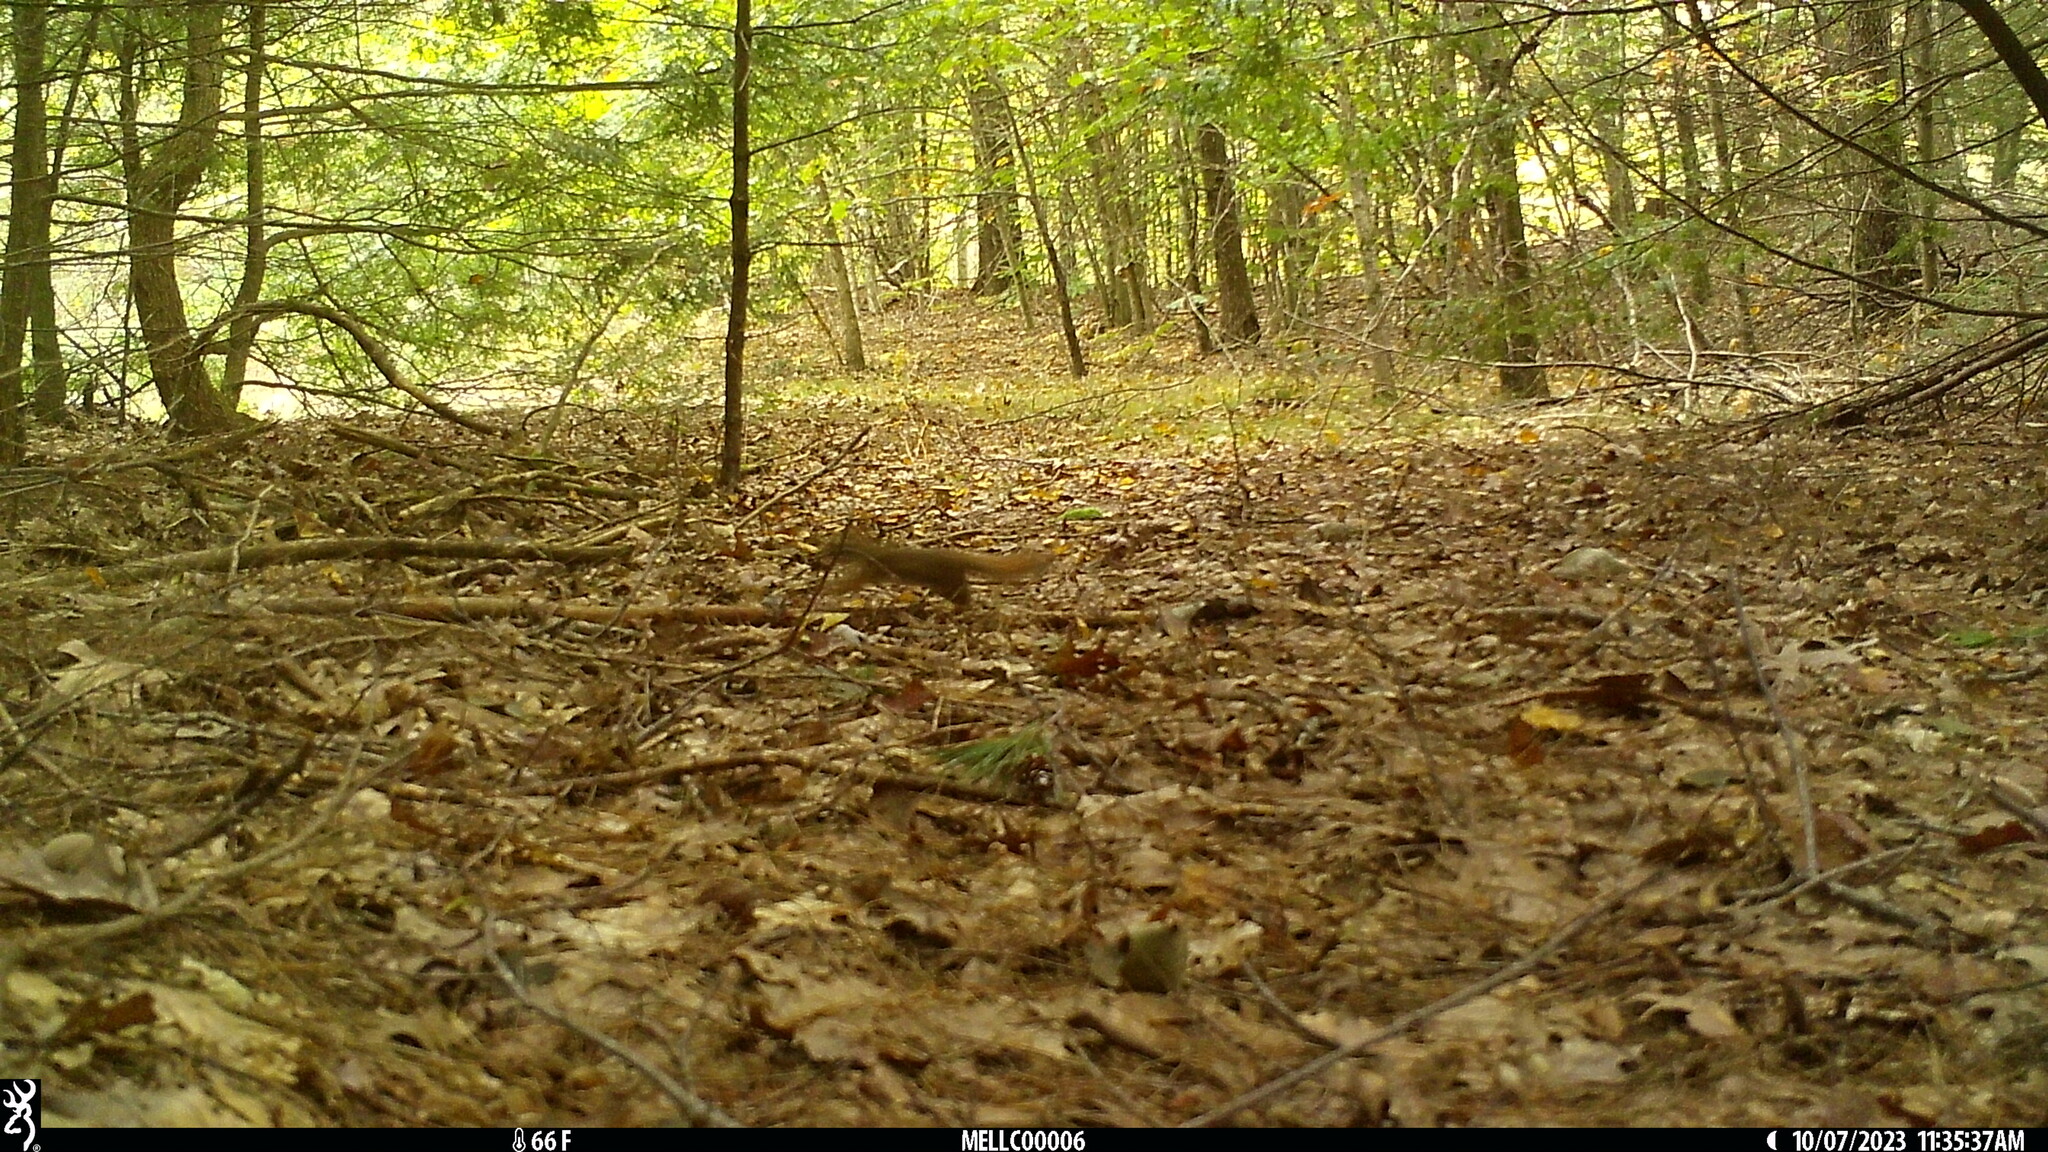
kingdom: Animalia
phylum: Chordata
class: Mammalia
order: Rodentia
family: Sciuridae
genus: Tamiasciurus
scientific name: Tamiasciurus hudsonicus
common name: Red squirrel
